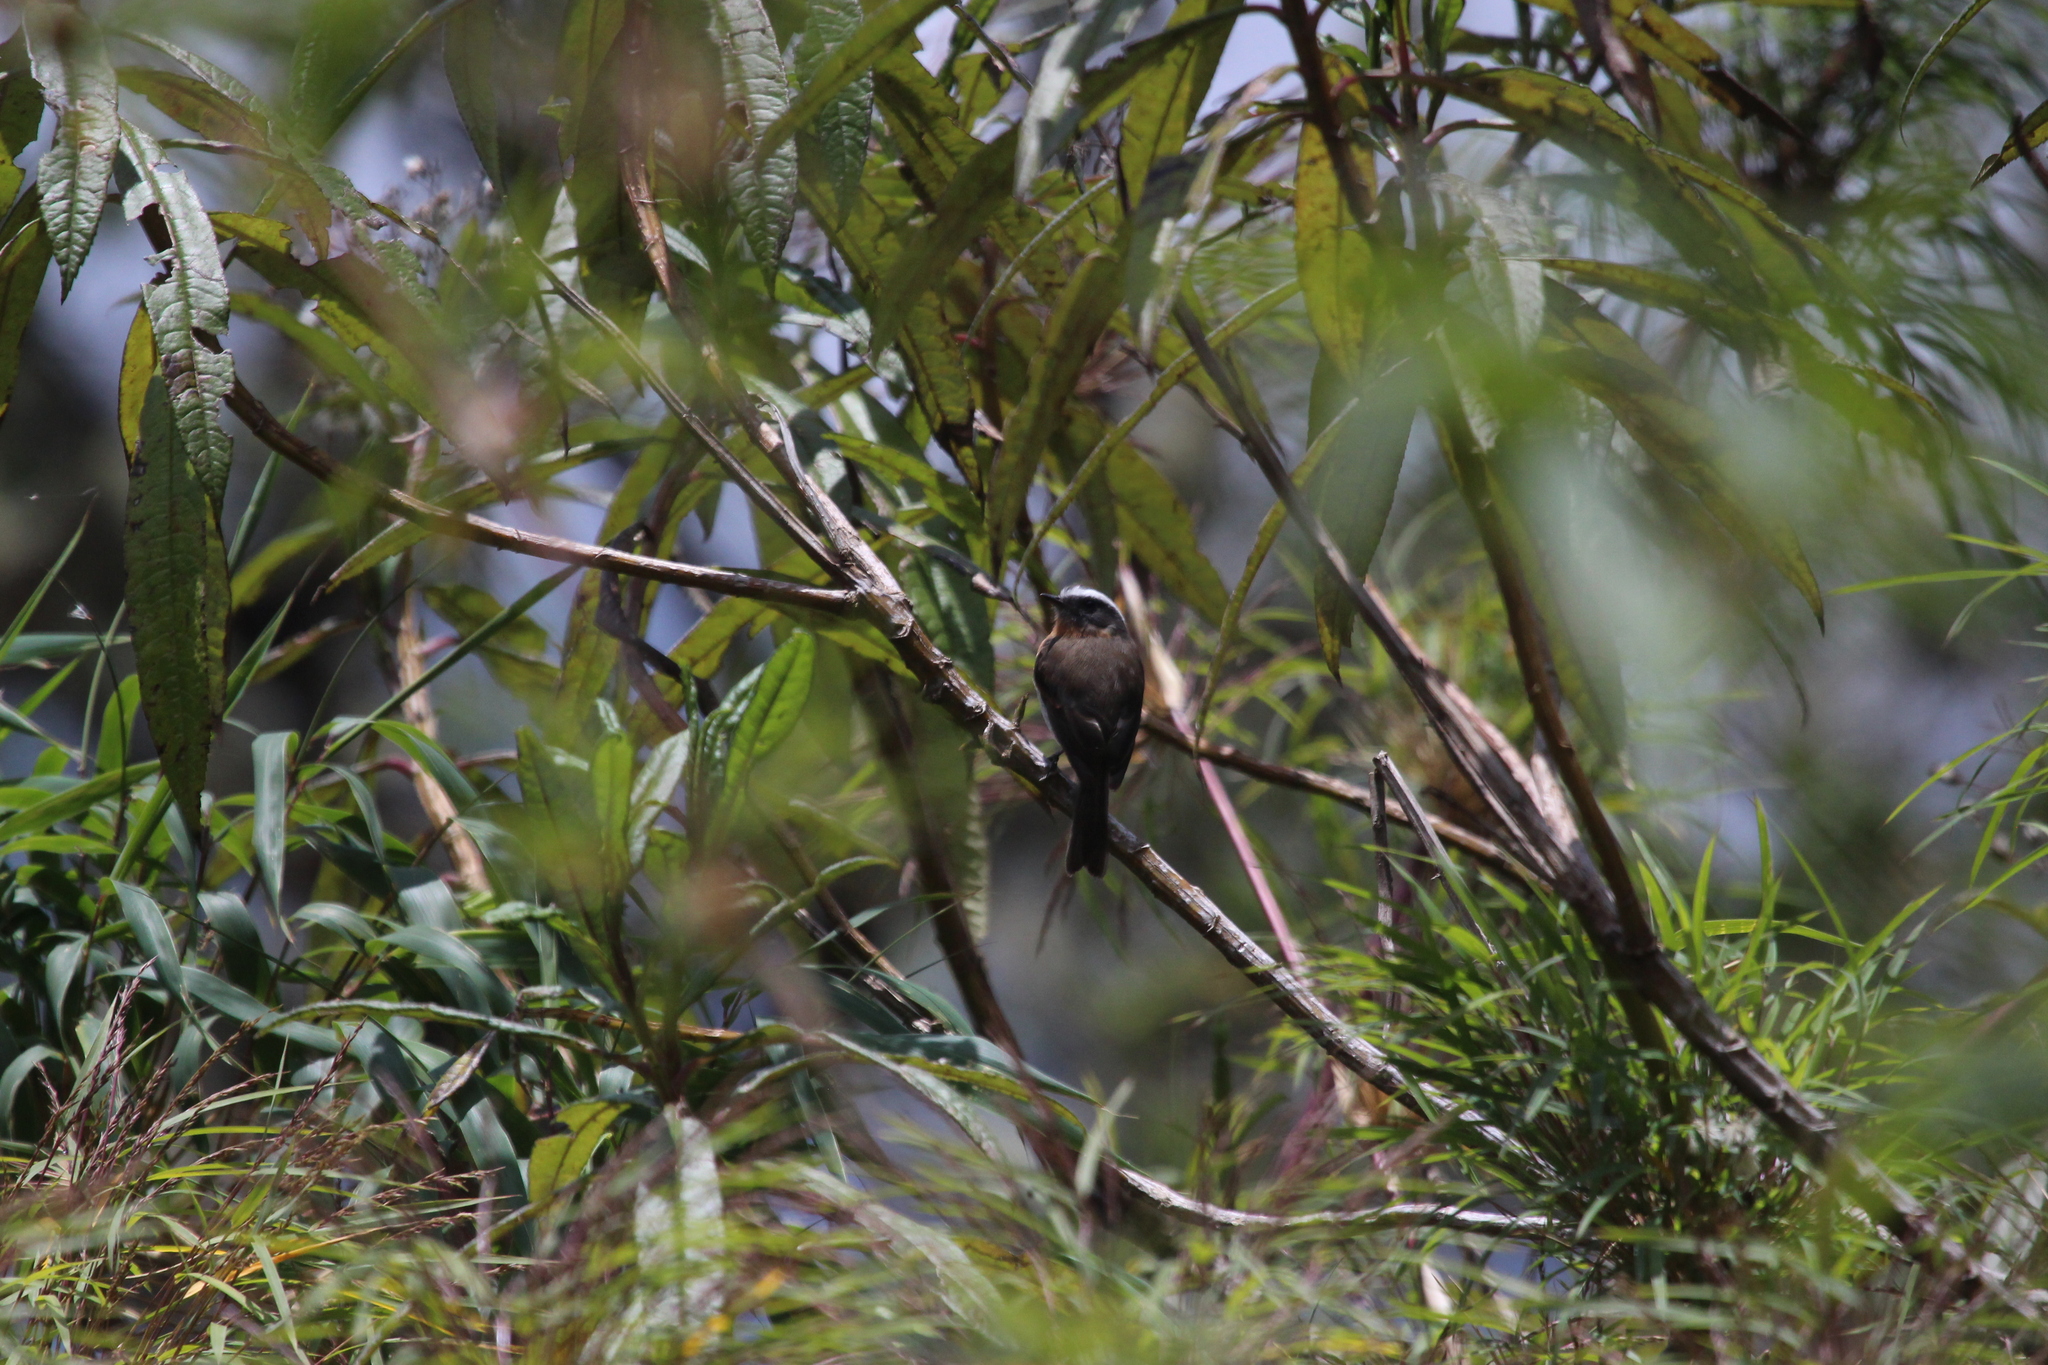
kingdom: Animalia
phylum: Chordata
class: Aves
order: Passeriformes
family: Tyrannidae
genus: Ochthoeca
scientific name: Ochthoeca rufipectoralis
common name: Rufous-breasted chat-tyrant
